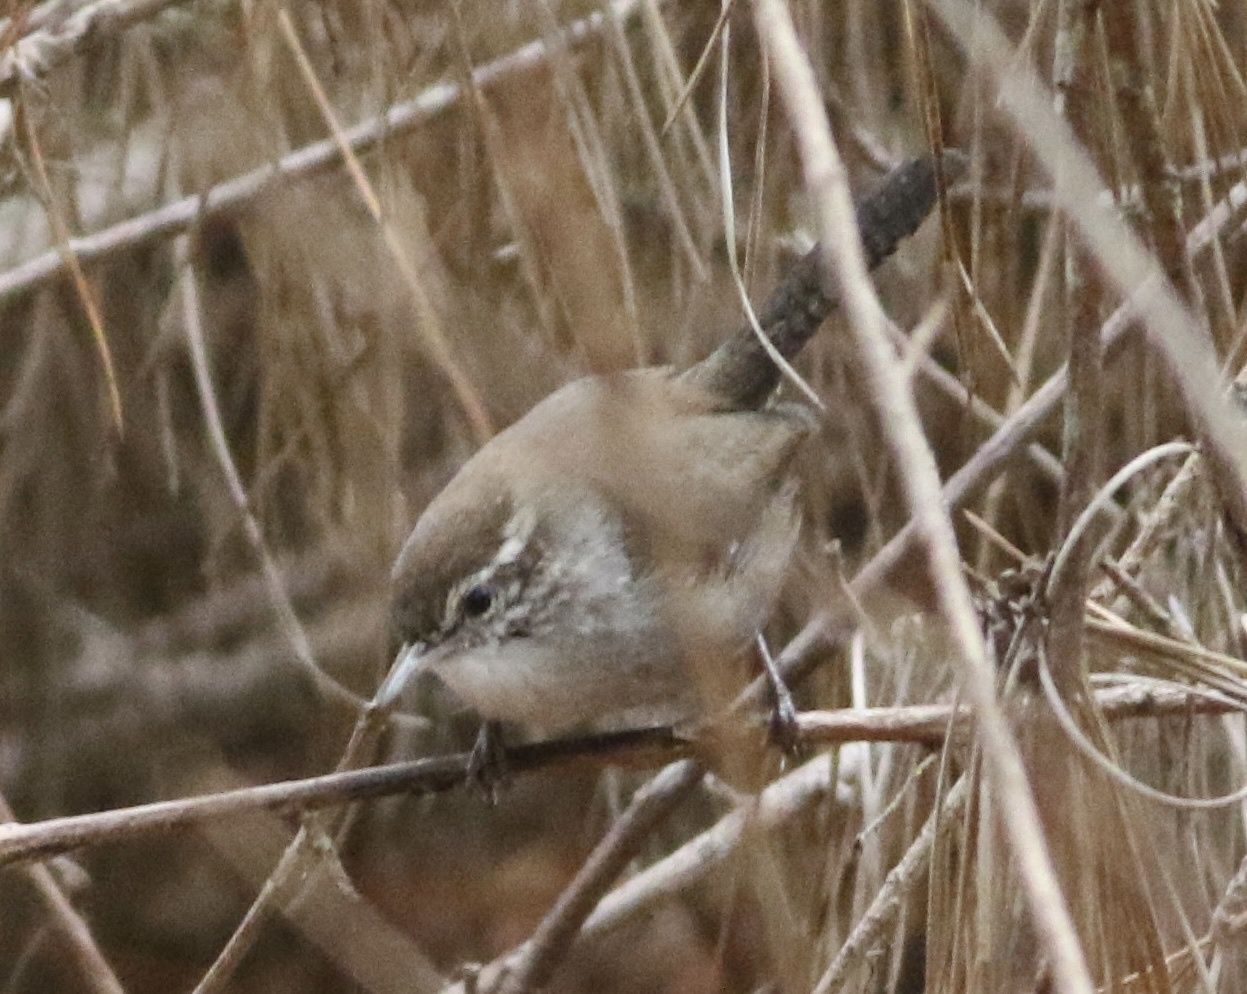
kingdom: Animalia
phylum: Chordata
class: Aves
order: Passeriformes
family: Troglodytidae
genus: Thryomanes
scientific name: Thryomanes bewickii
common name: Bewick's wren
